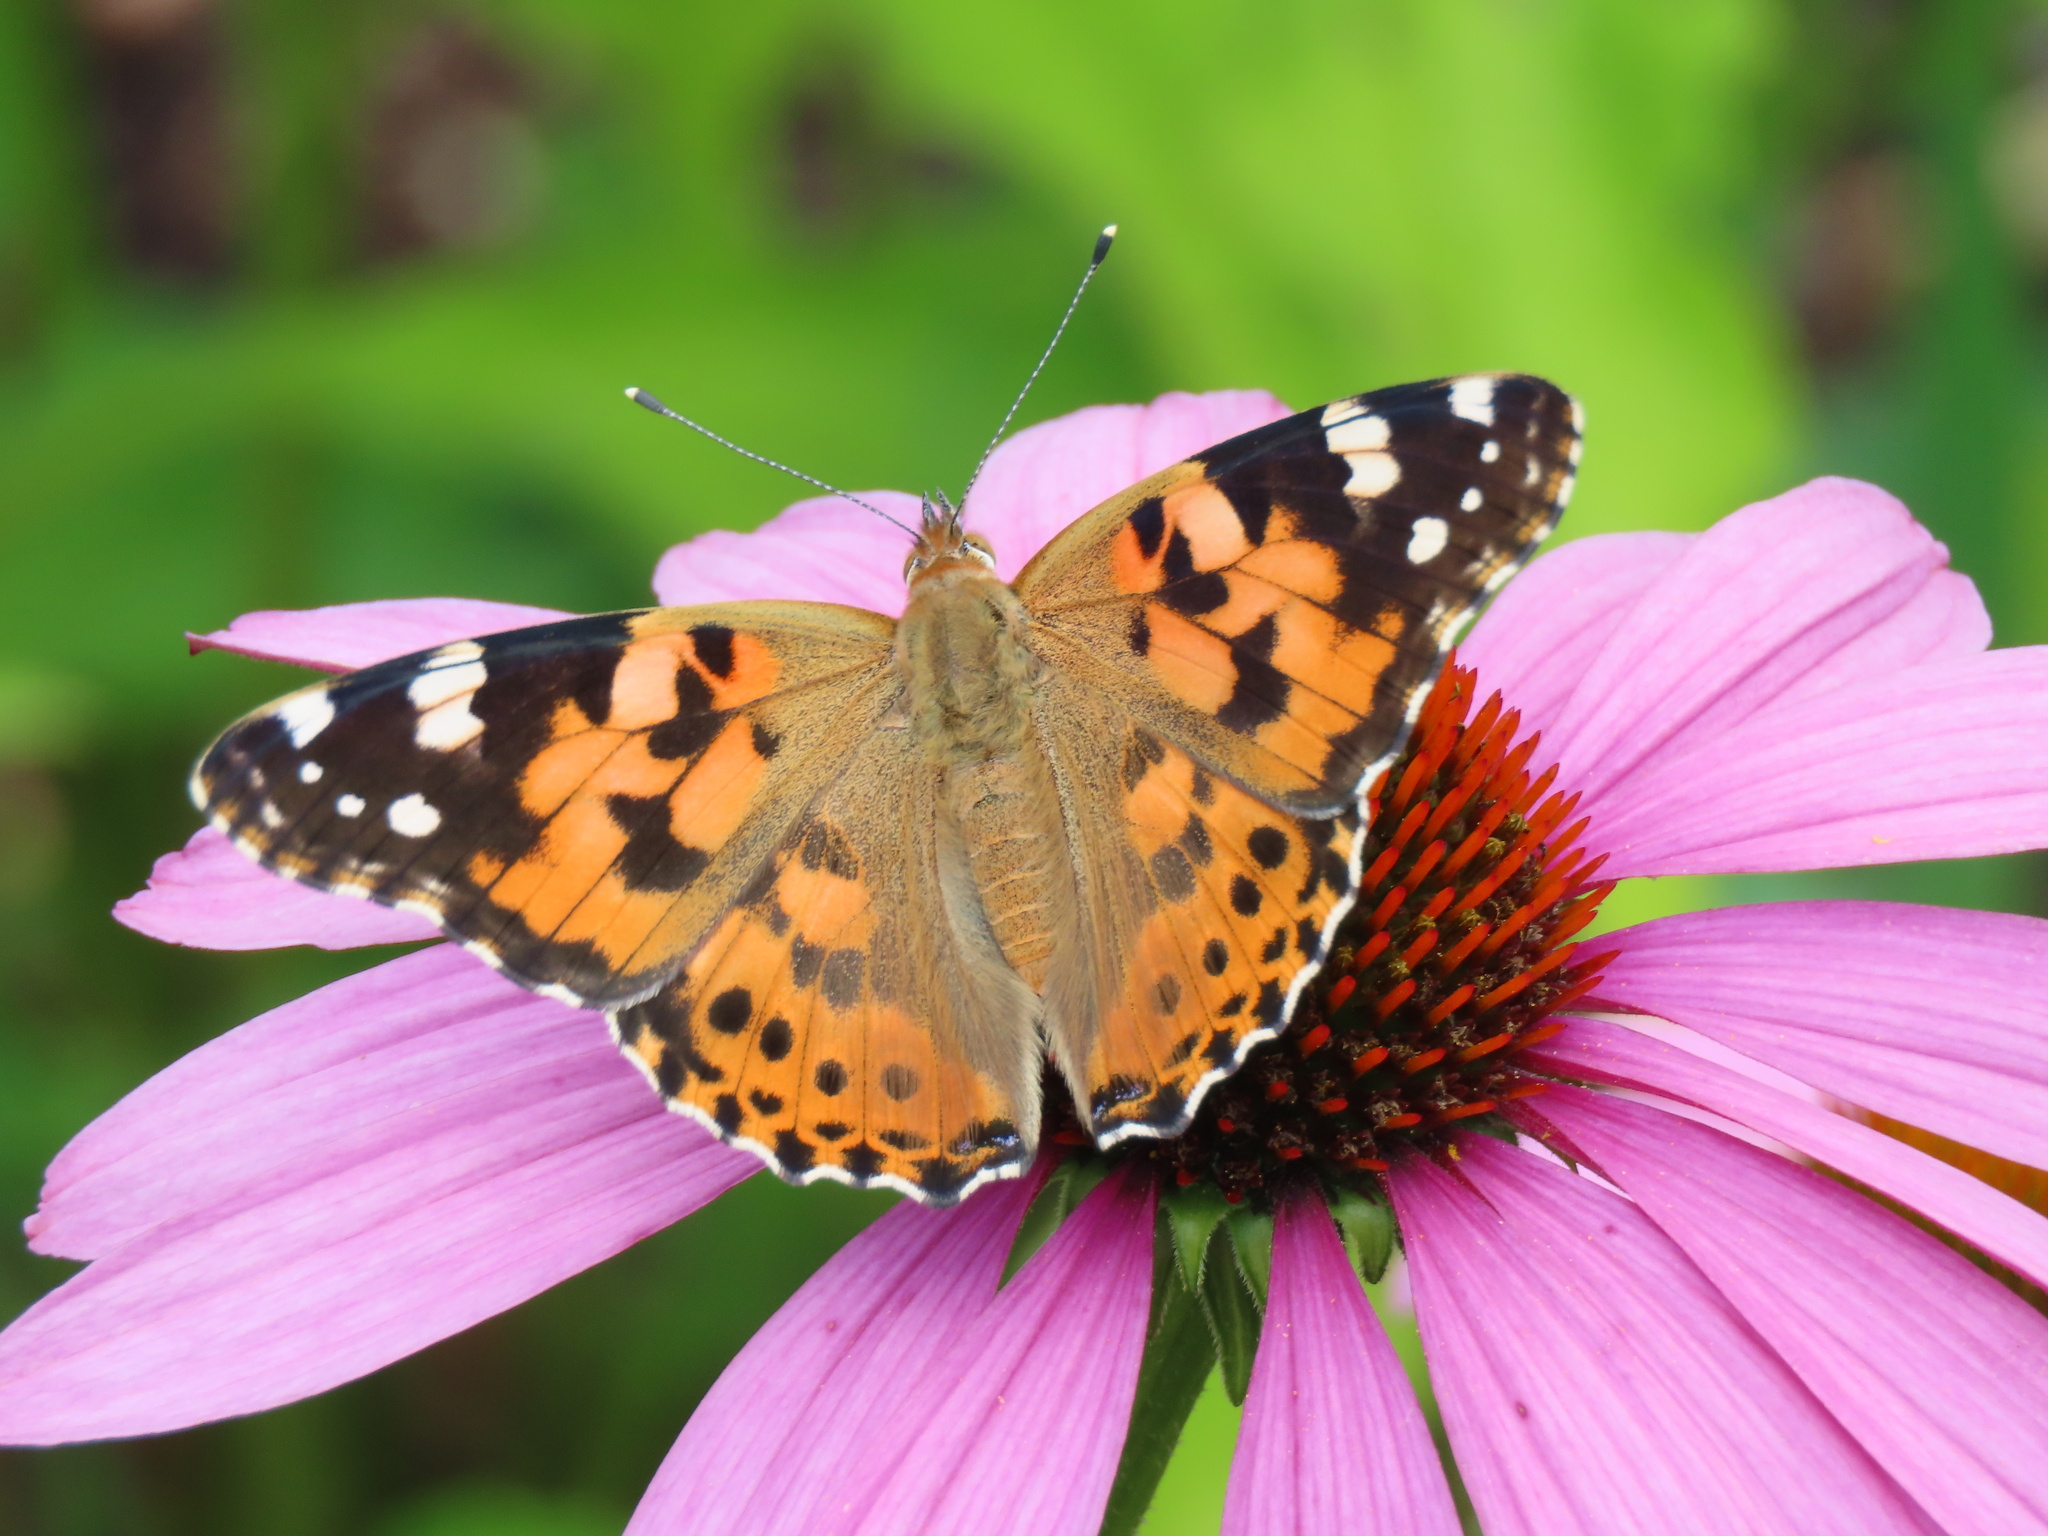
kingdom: Animalia
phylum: Arthropoda
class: Insecta
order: Lepidoptera
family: Nymphalidae
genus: Vanessa
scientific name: Vanessa cardui
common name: Painted lady
